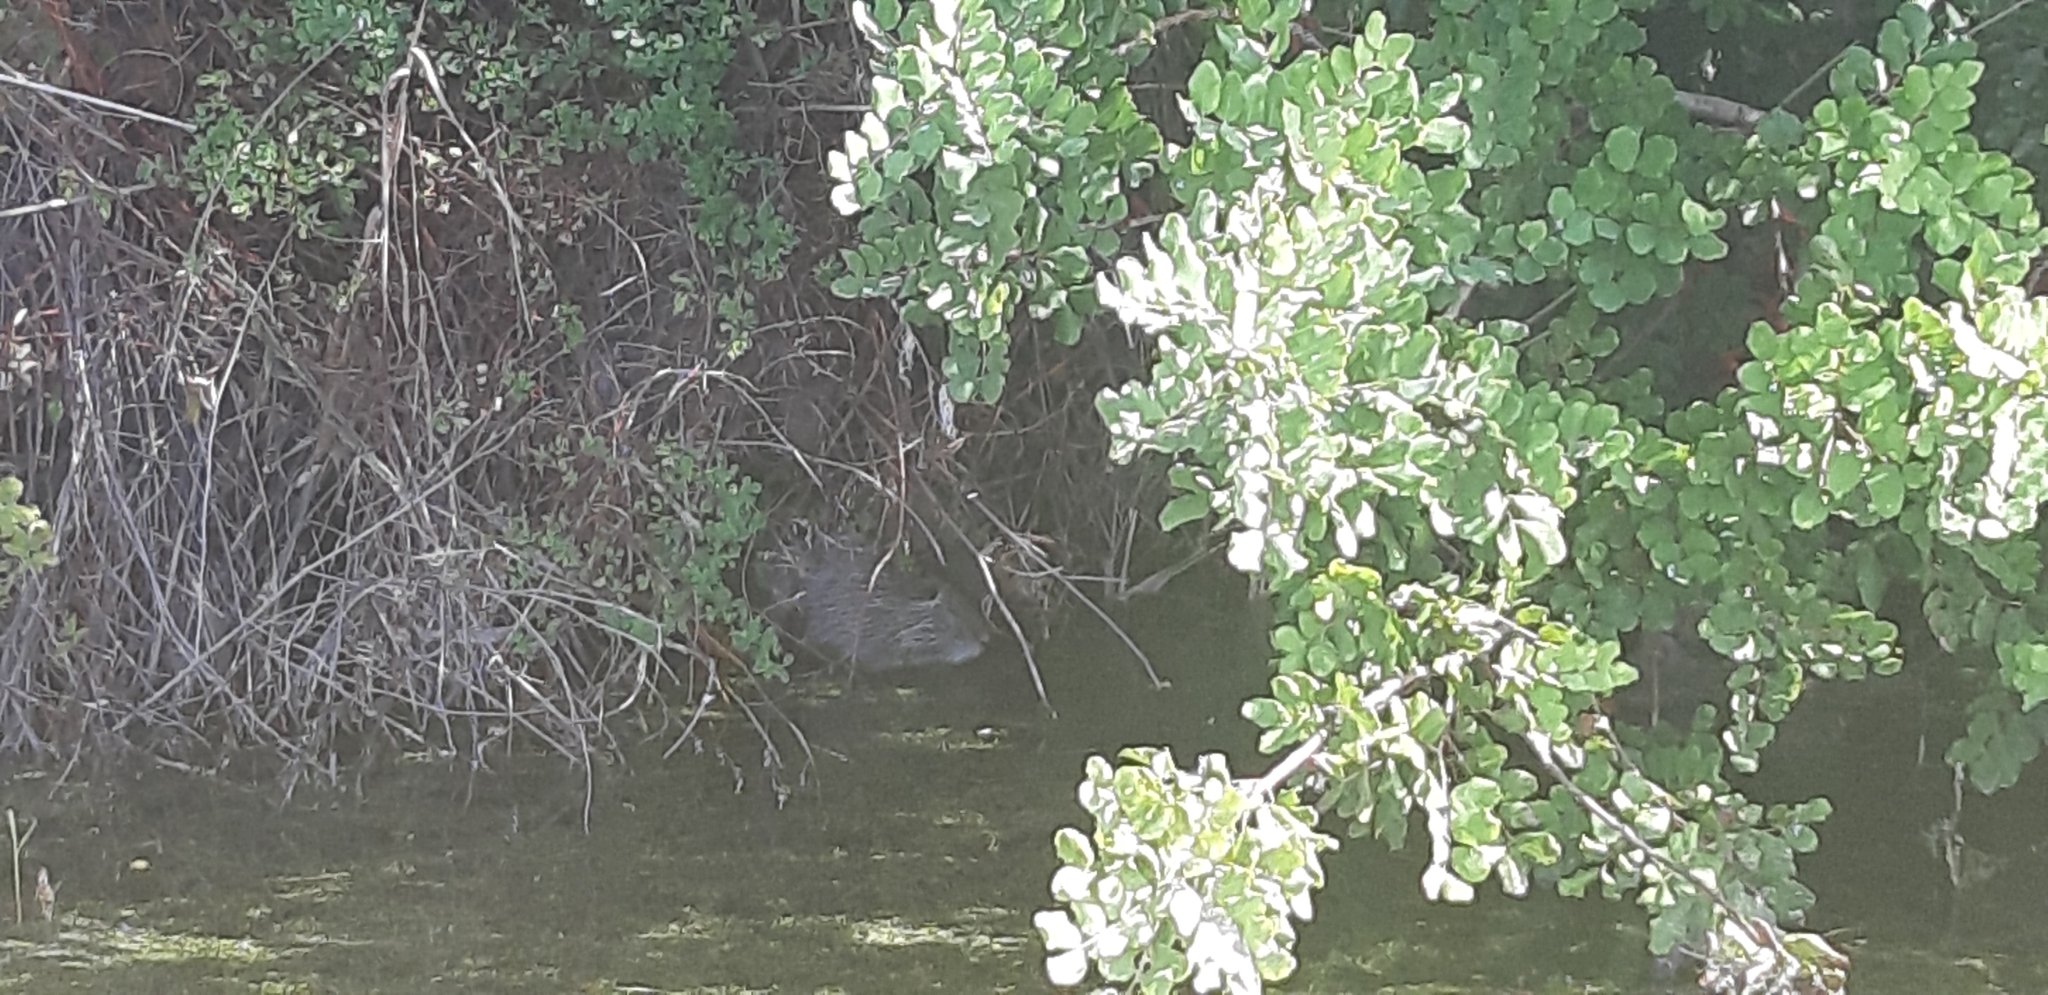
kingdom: Animalia
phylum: Chordata
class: Mammalia
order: Rodentia
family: Myocastoridae
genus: Myocastor
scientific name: Myocastor coypus
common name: Coypu
